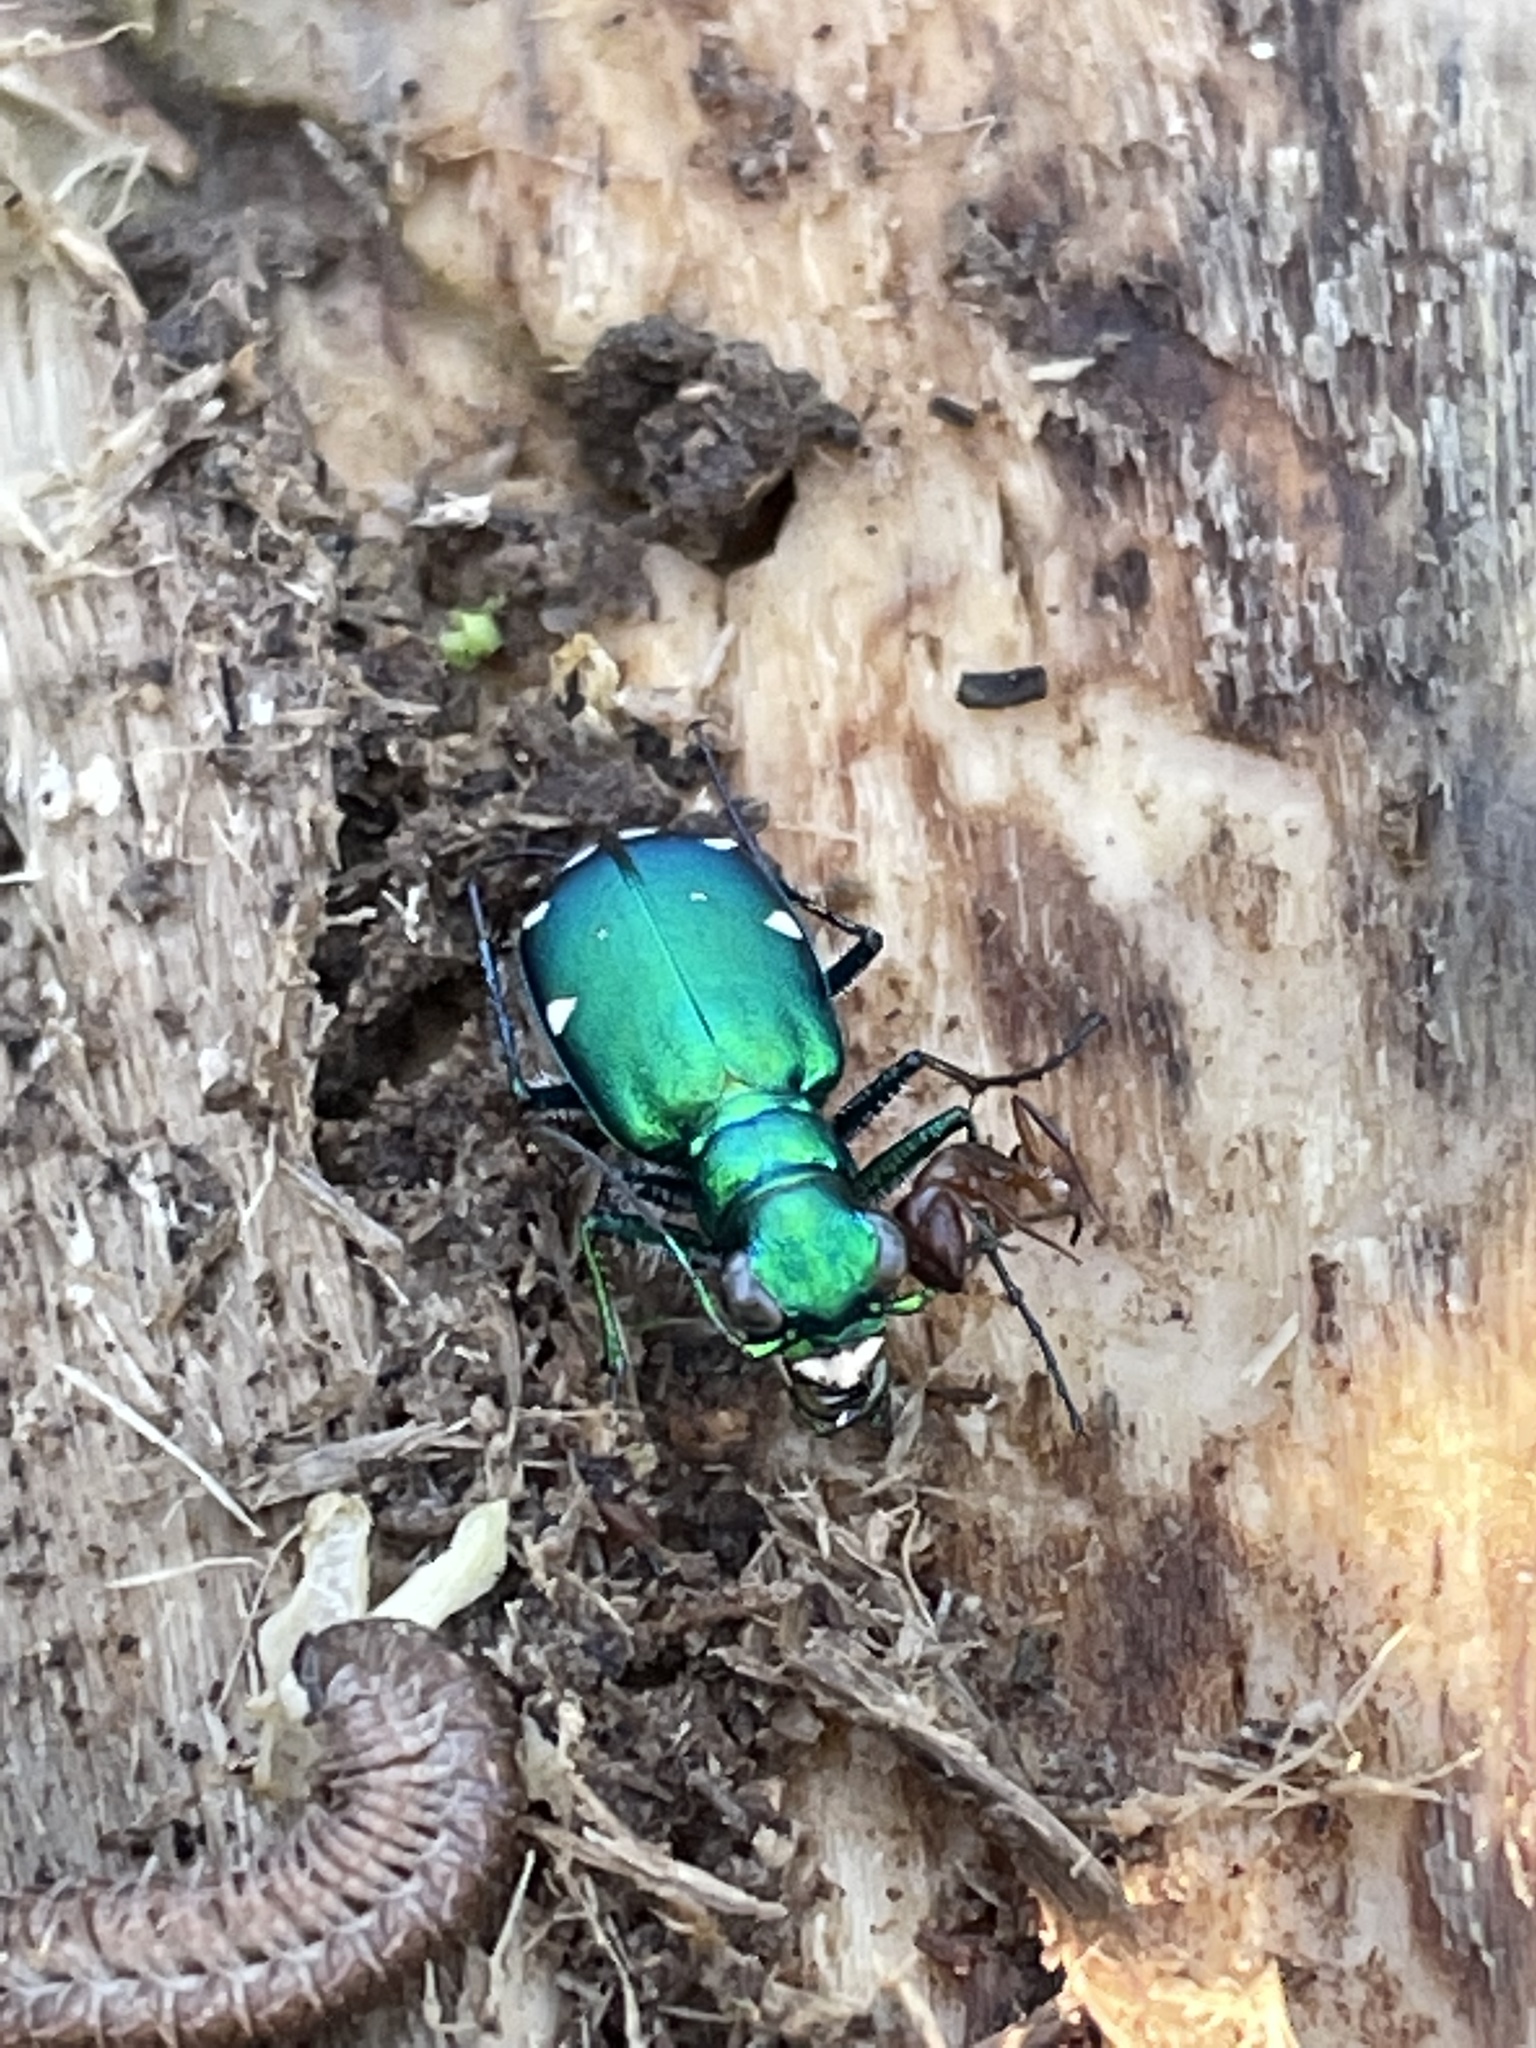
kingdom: Animalia
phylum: Arthropoda
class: Insecta
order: Coleoptera
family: Carabidae
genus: Cicindela
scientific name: Cicindela sexguttata
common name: Six-spotted tiger beetle
